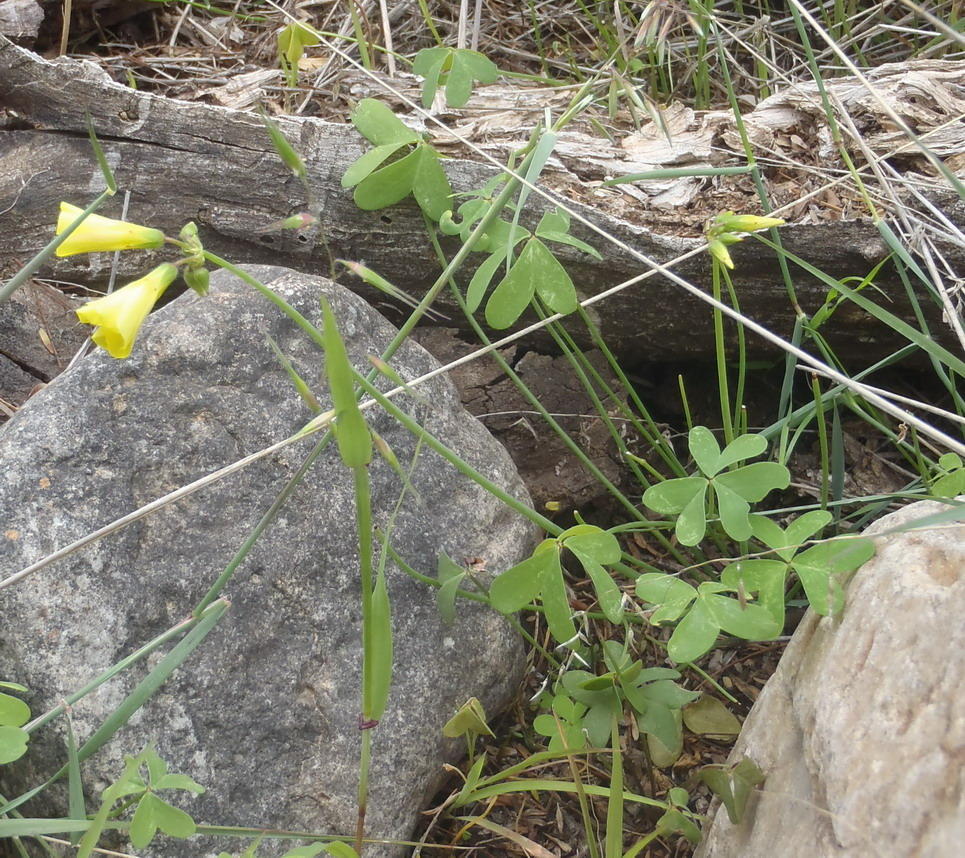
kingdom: Plantae
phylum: Tracheophyta
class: Magnoliopsida
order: Oxalidales
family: Oxalidaceae
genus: Oxalis
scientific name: Oxalis pes-caprae
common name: Bermuda-buttercup
